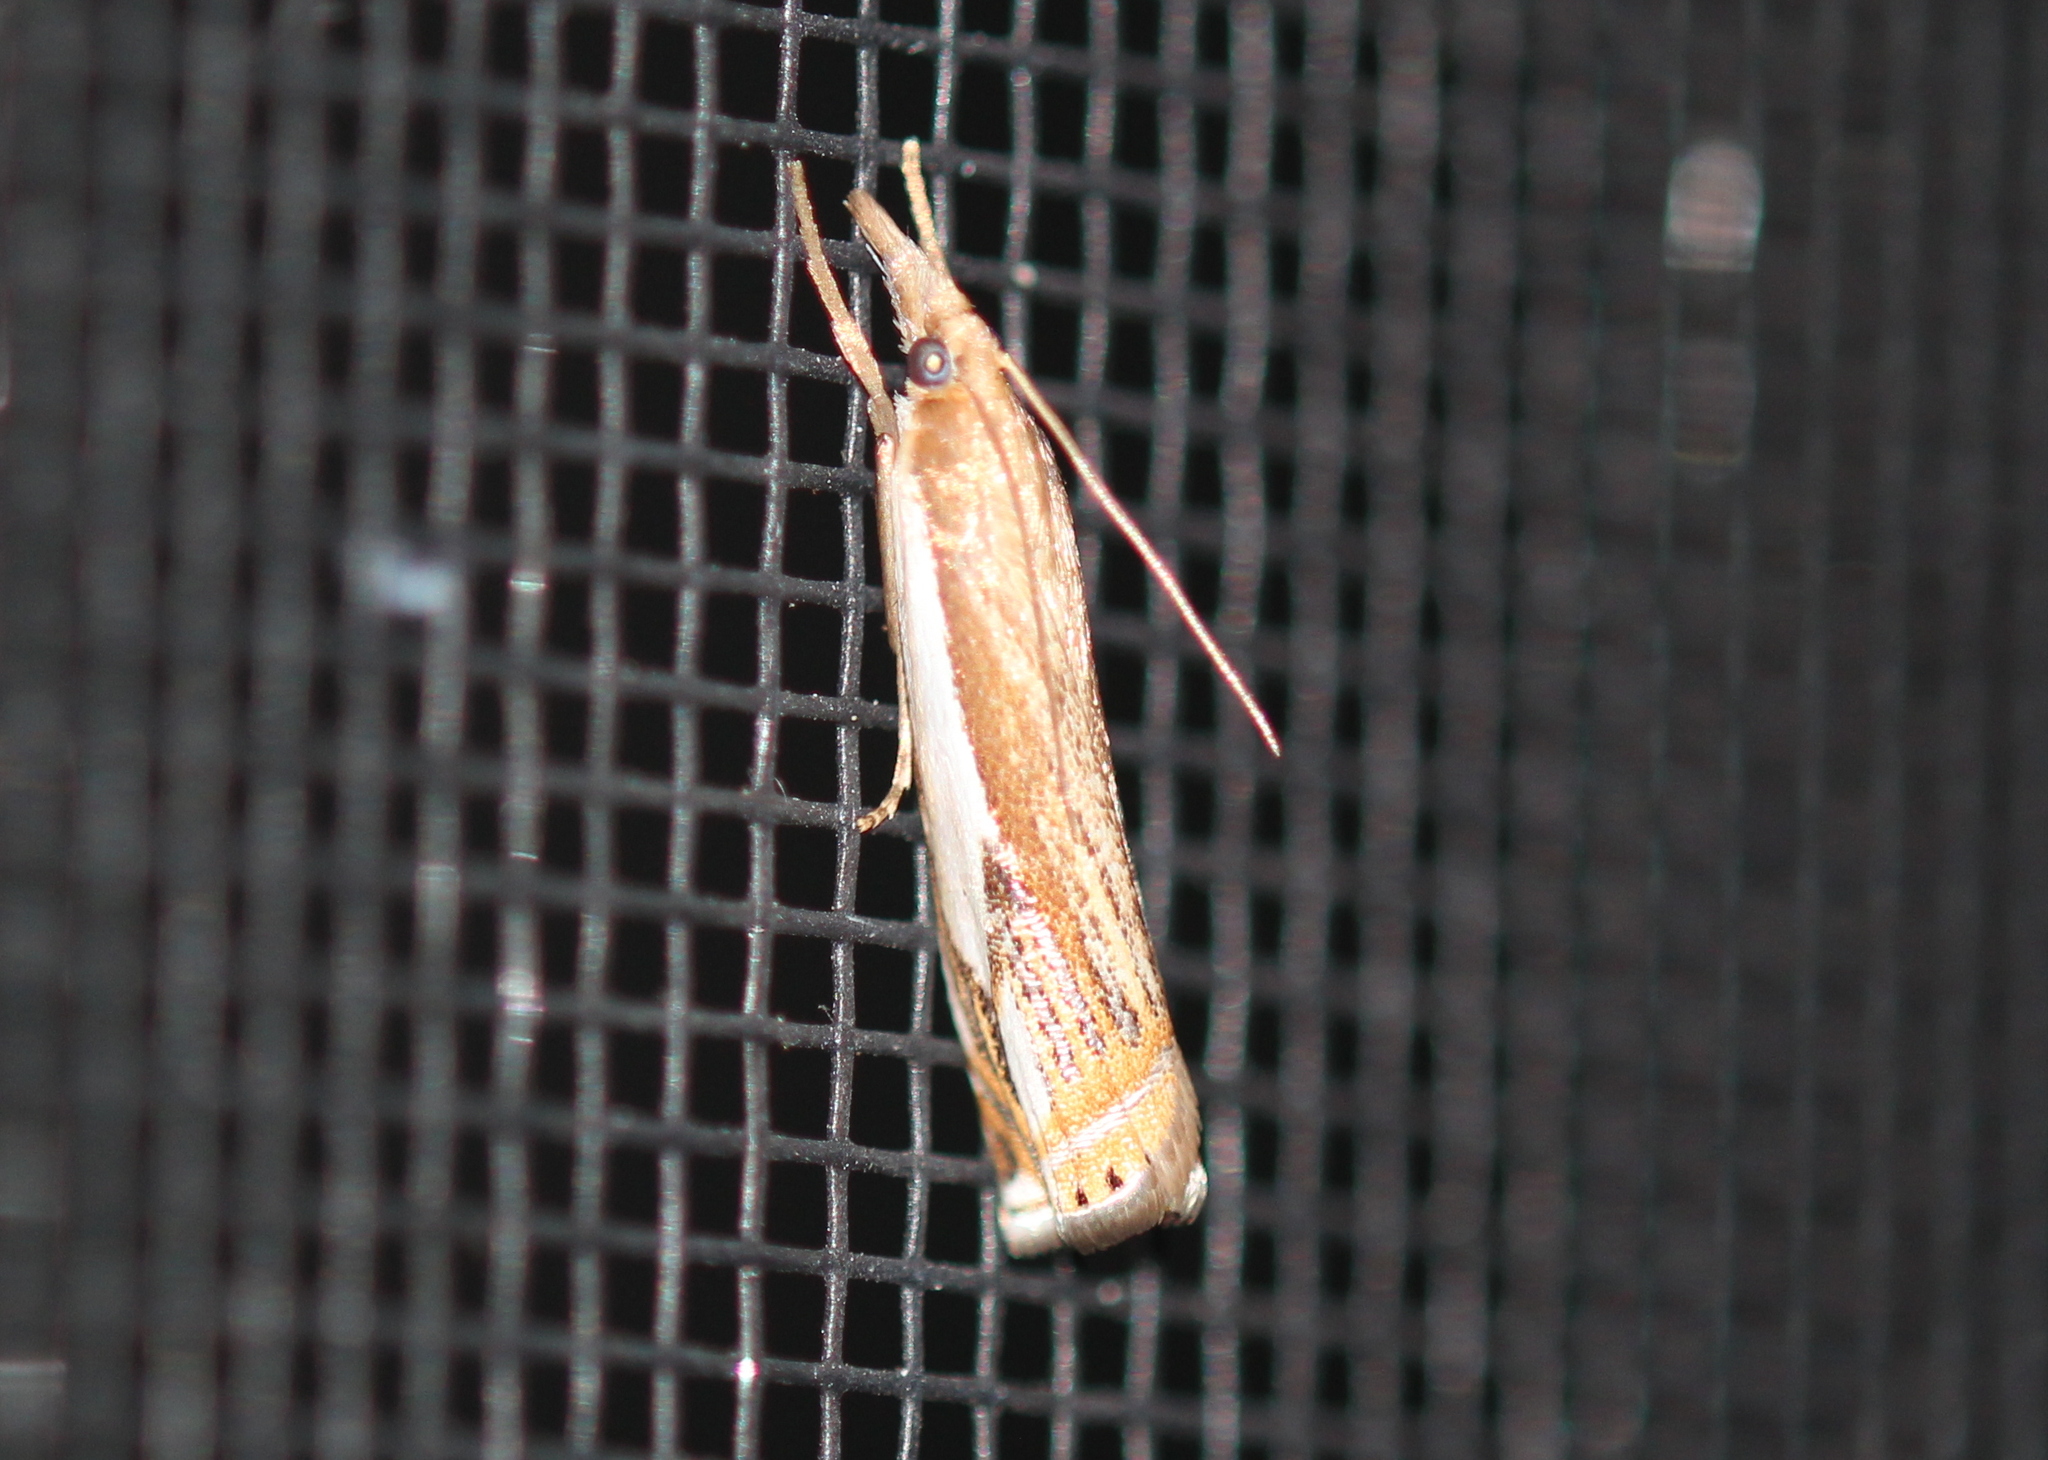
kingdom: Animalia
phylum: Arthropoda
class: Insecta
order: Lepidoptera
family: Crambidae
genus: Crambus
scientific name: Crambus agitatellus
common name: Double-banded grass-veneer
